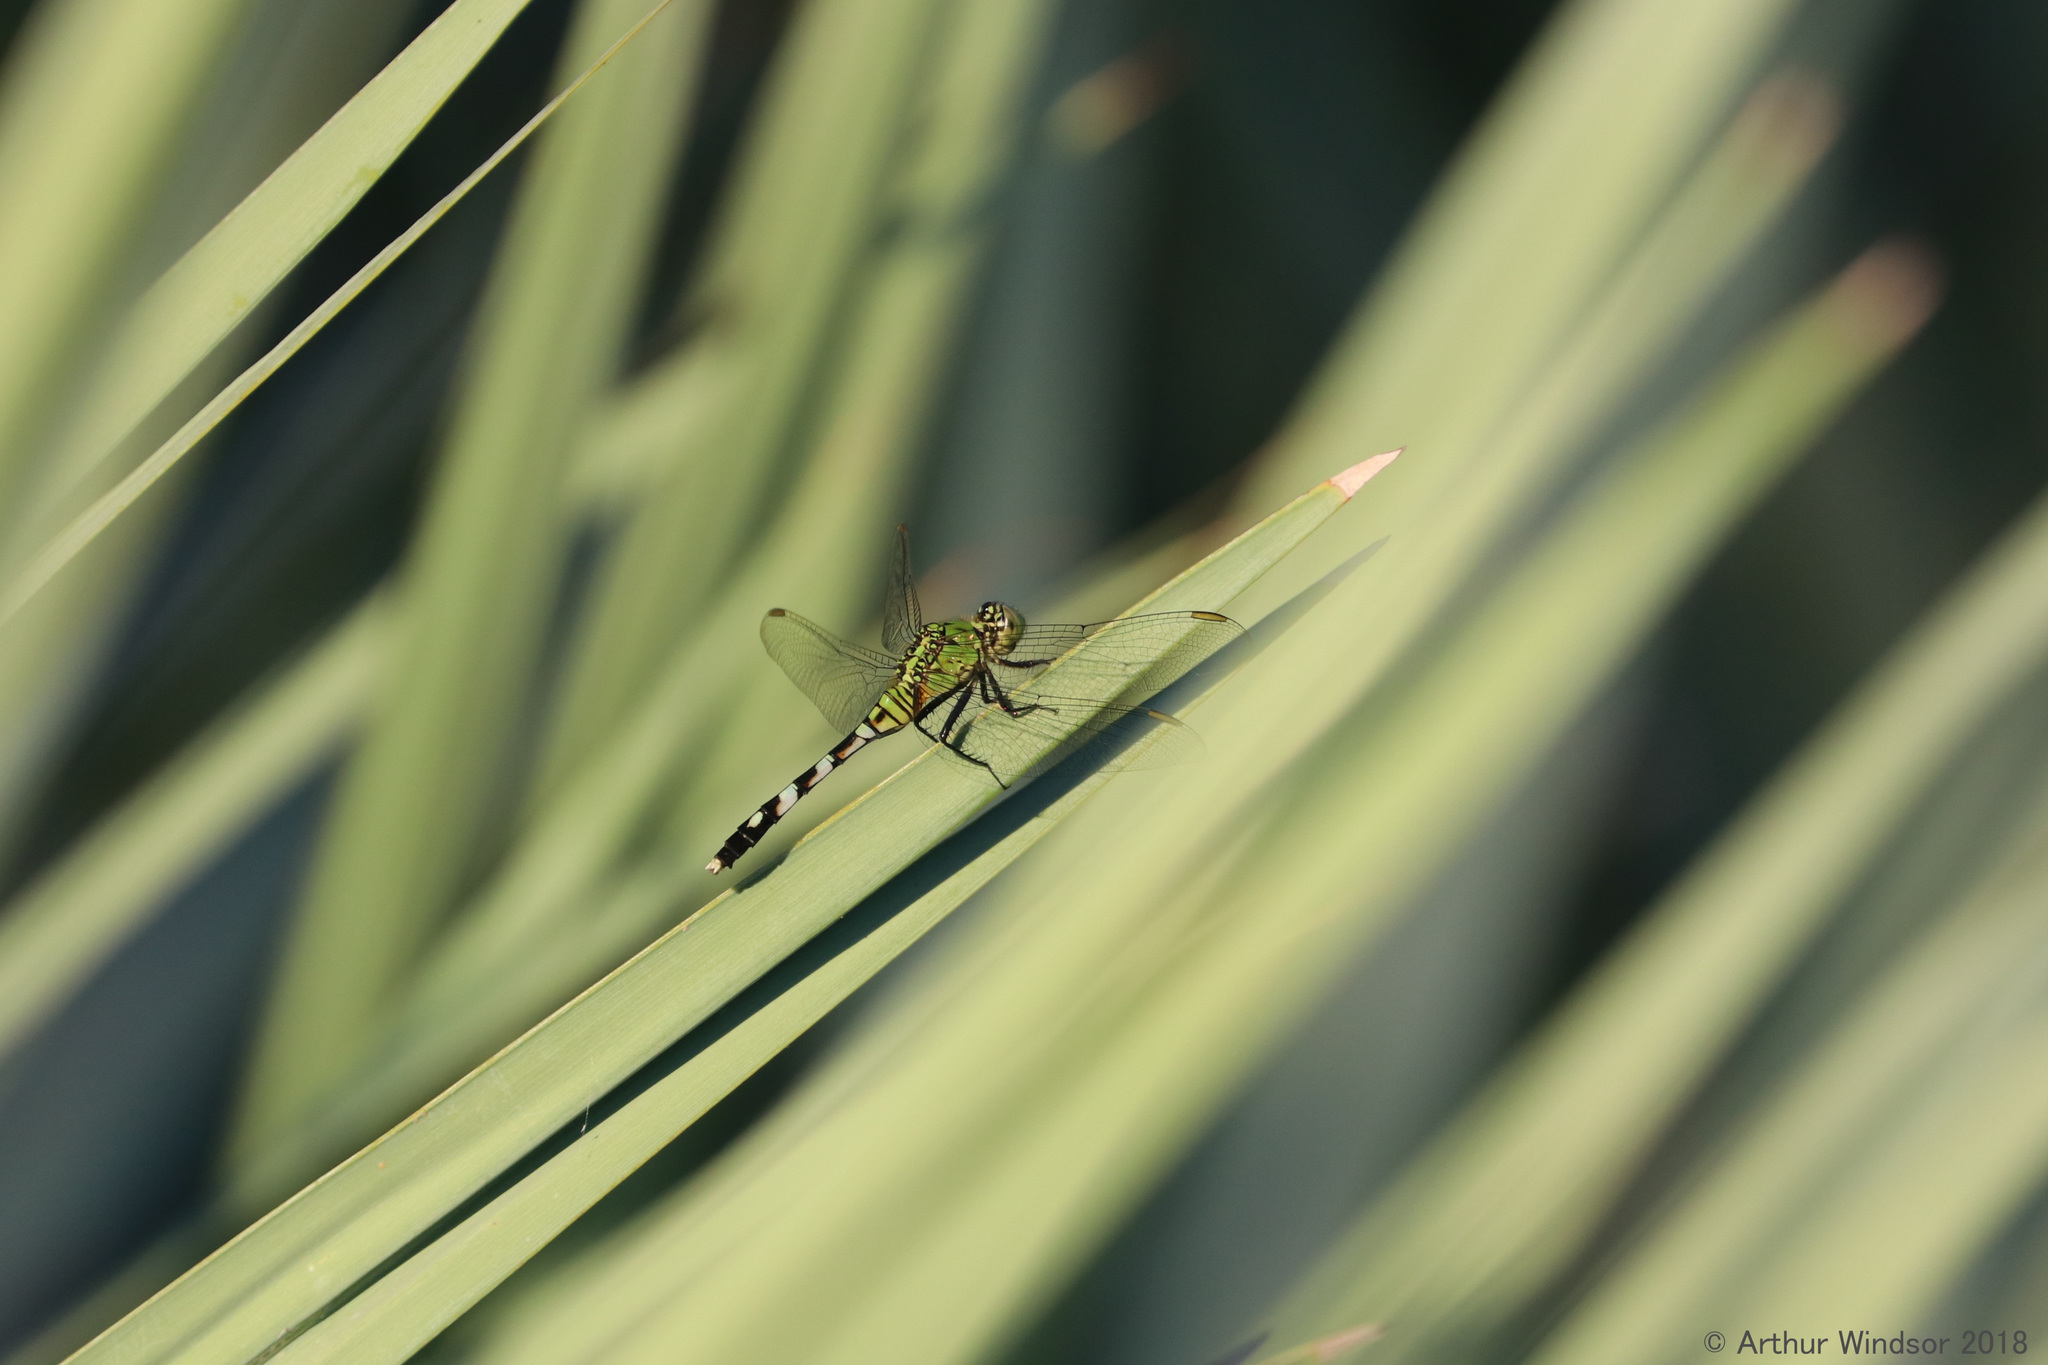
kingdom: Animalia
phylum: Arthropoda
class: Insecta
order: Odonata
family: Libellulidae
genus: Erythemis
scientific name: Erythemis simplicicollis
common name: Eastern pondhawk
